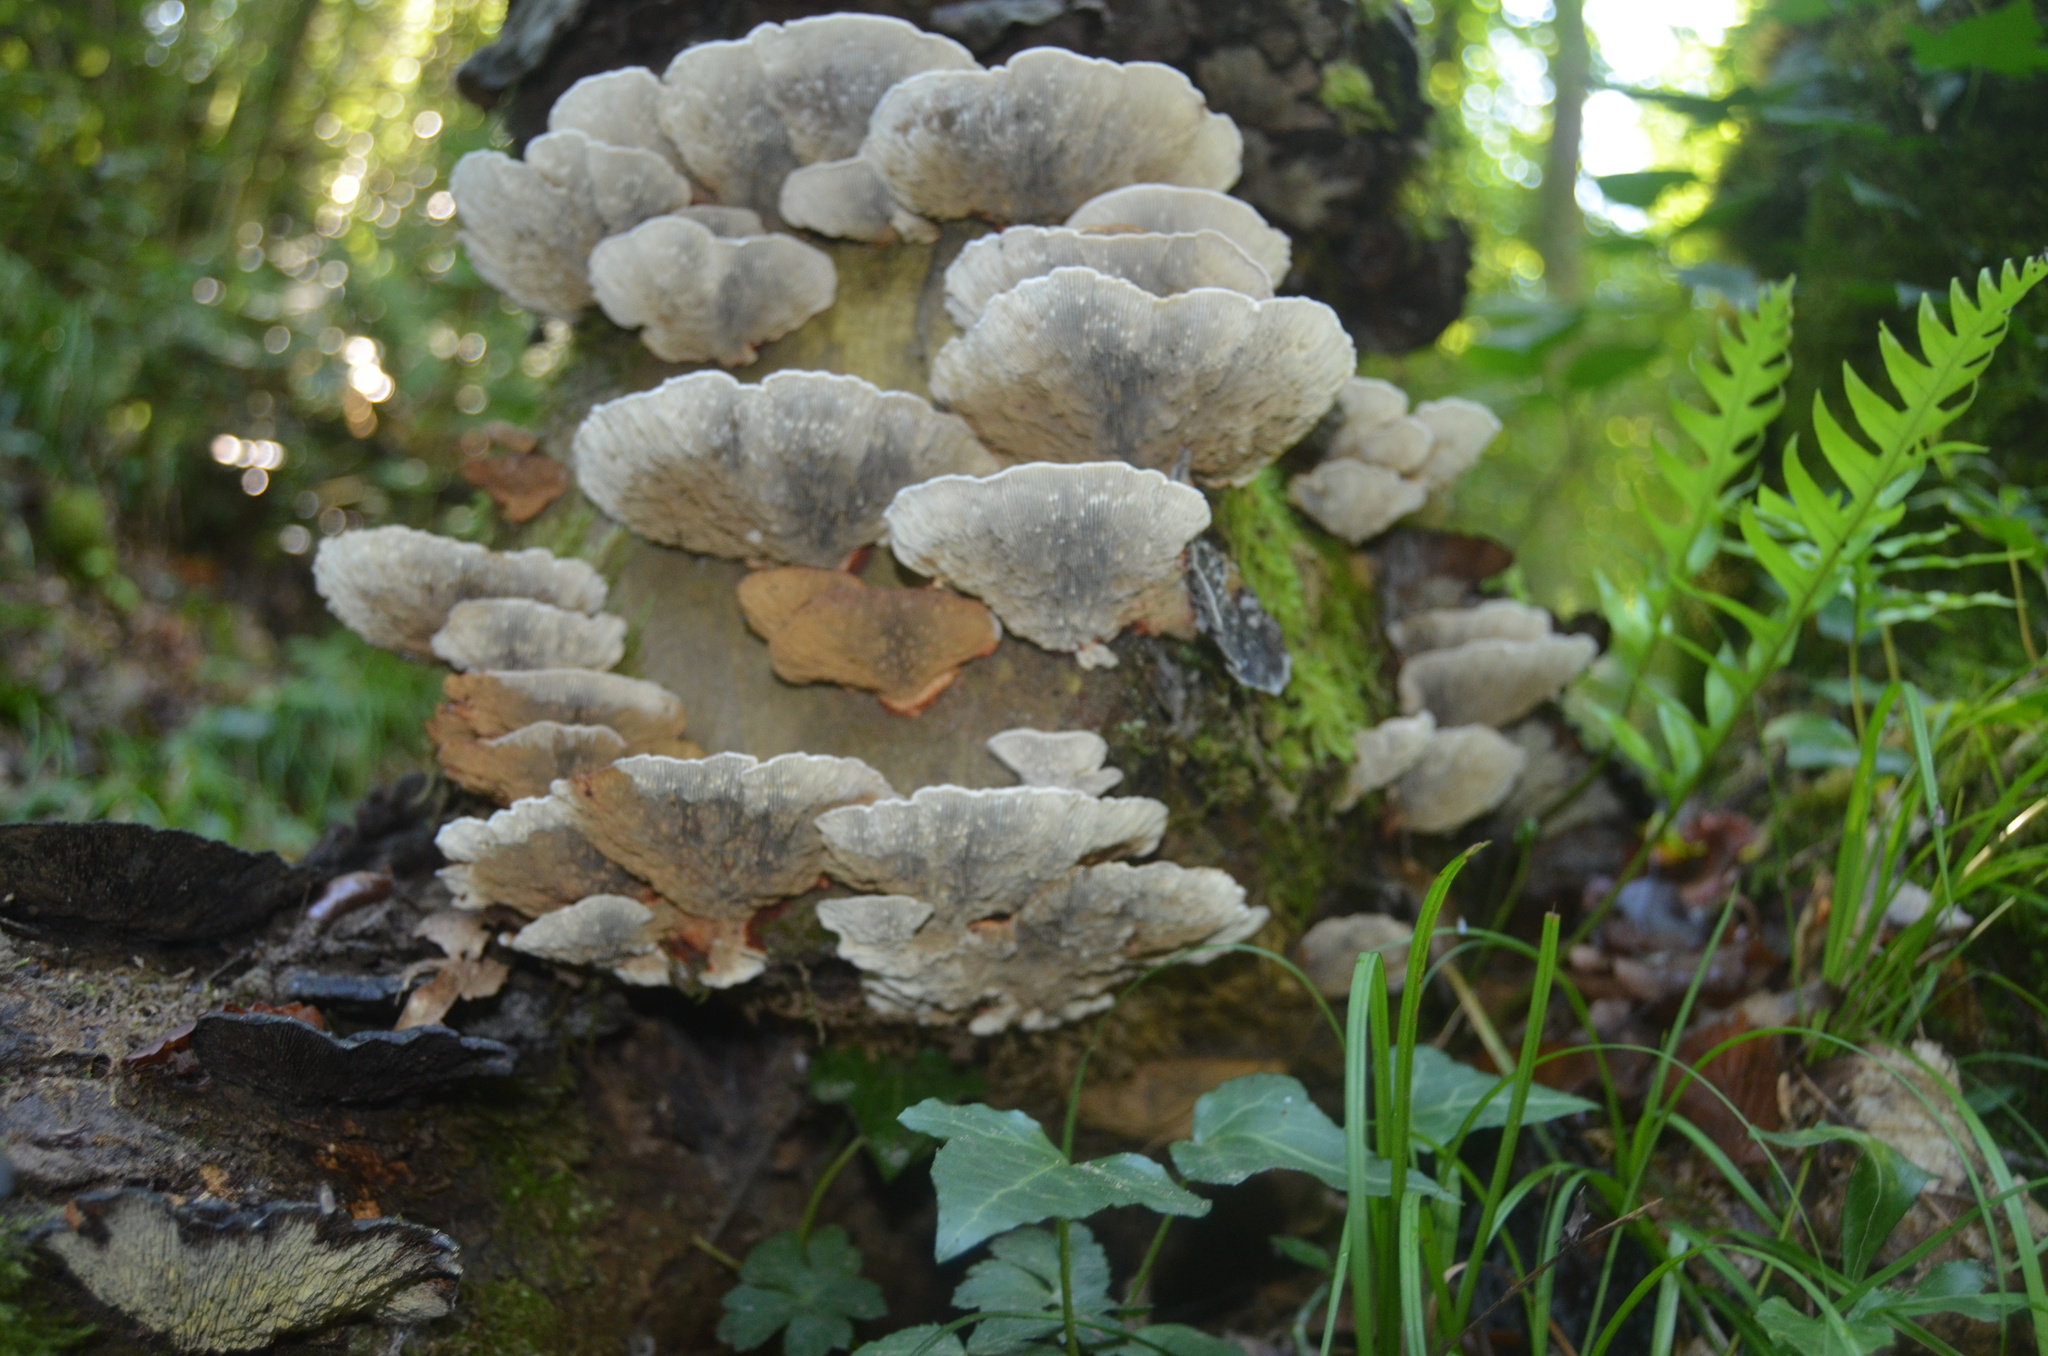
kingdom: Fungi
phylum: Basidiomycota
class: Agaricomycetes
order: Polyporales
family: Polyporaceae
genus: Trametes
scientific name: Trametes versicolor
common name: Turkeytail
